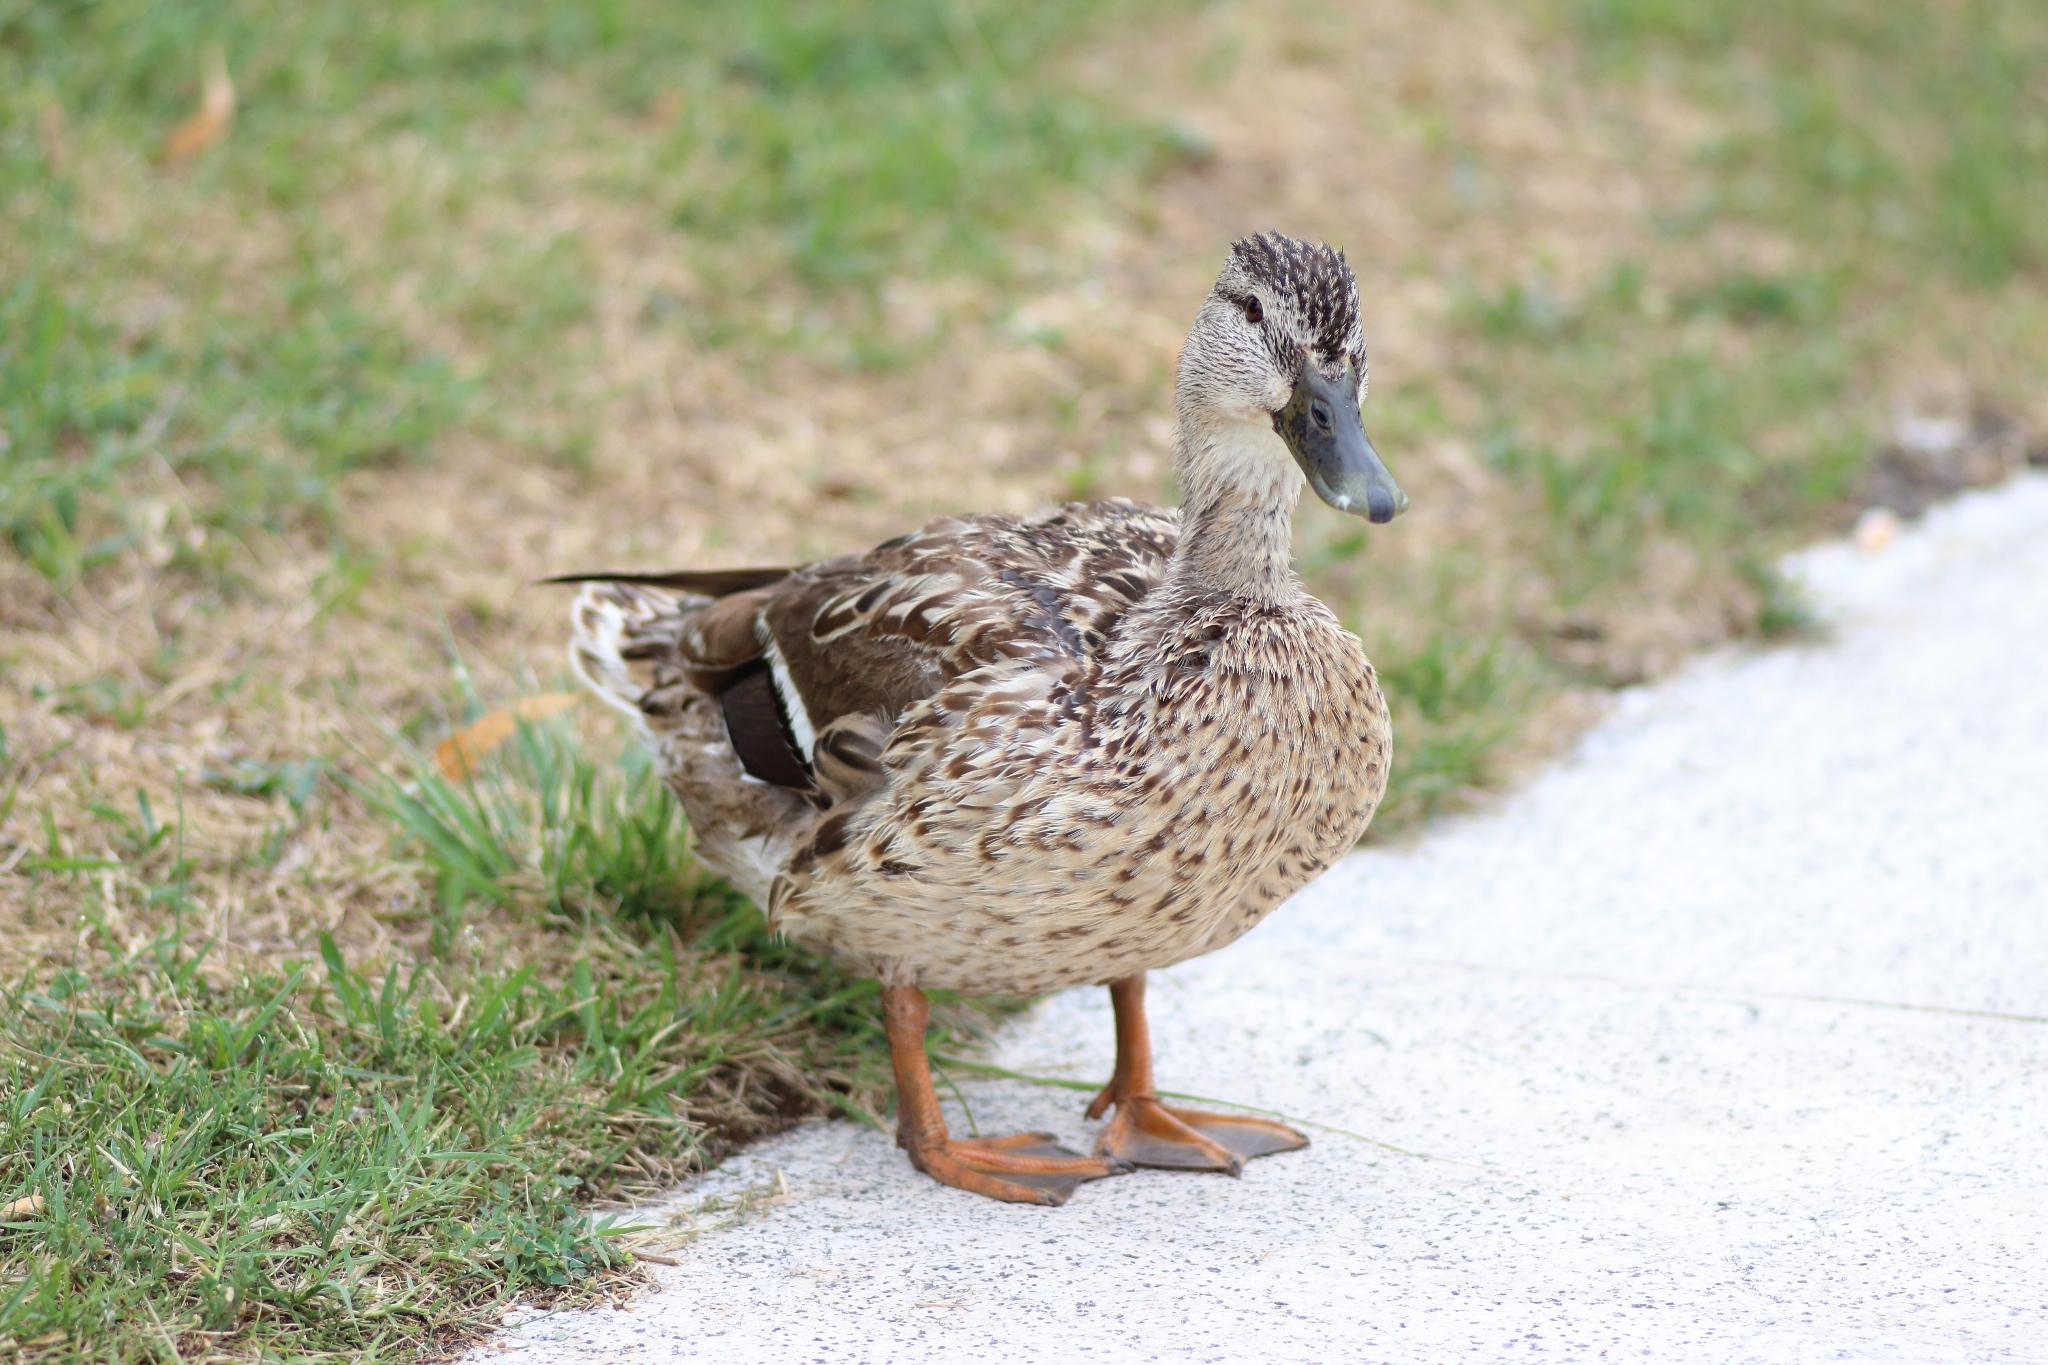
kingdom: Animalia
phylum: Chordata
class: Aves
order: Anseriformes
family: Anatidae
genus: Anas
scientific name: Anas platyrhynchos
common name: Mallard
